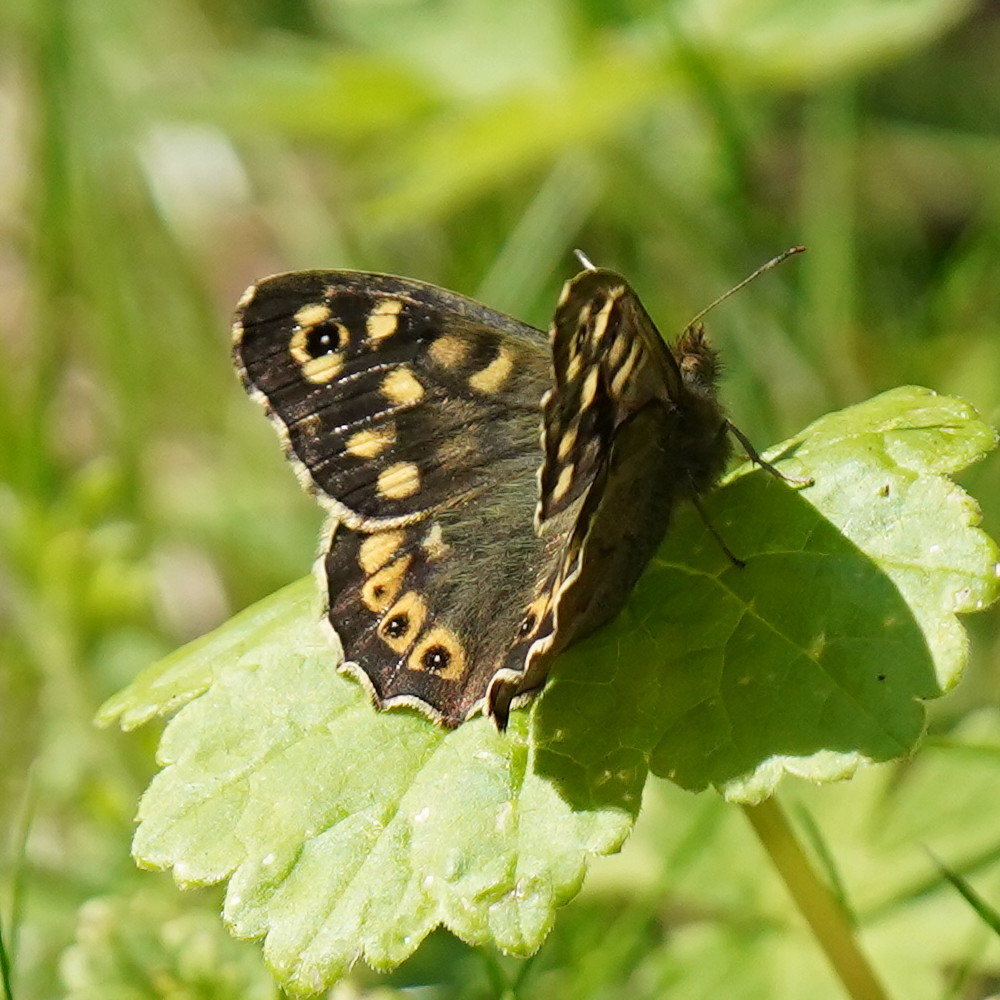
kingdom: Animalia
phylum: Arthropoda
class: Insecta
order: Lepidoptera
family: Nymphalidae
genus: Pararge
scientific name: Pararge aegeria
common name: Speckled wood
